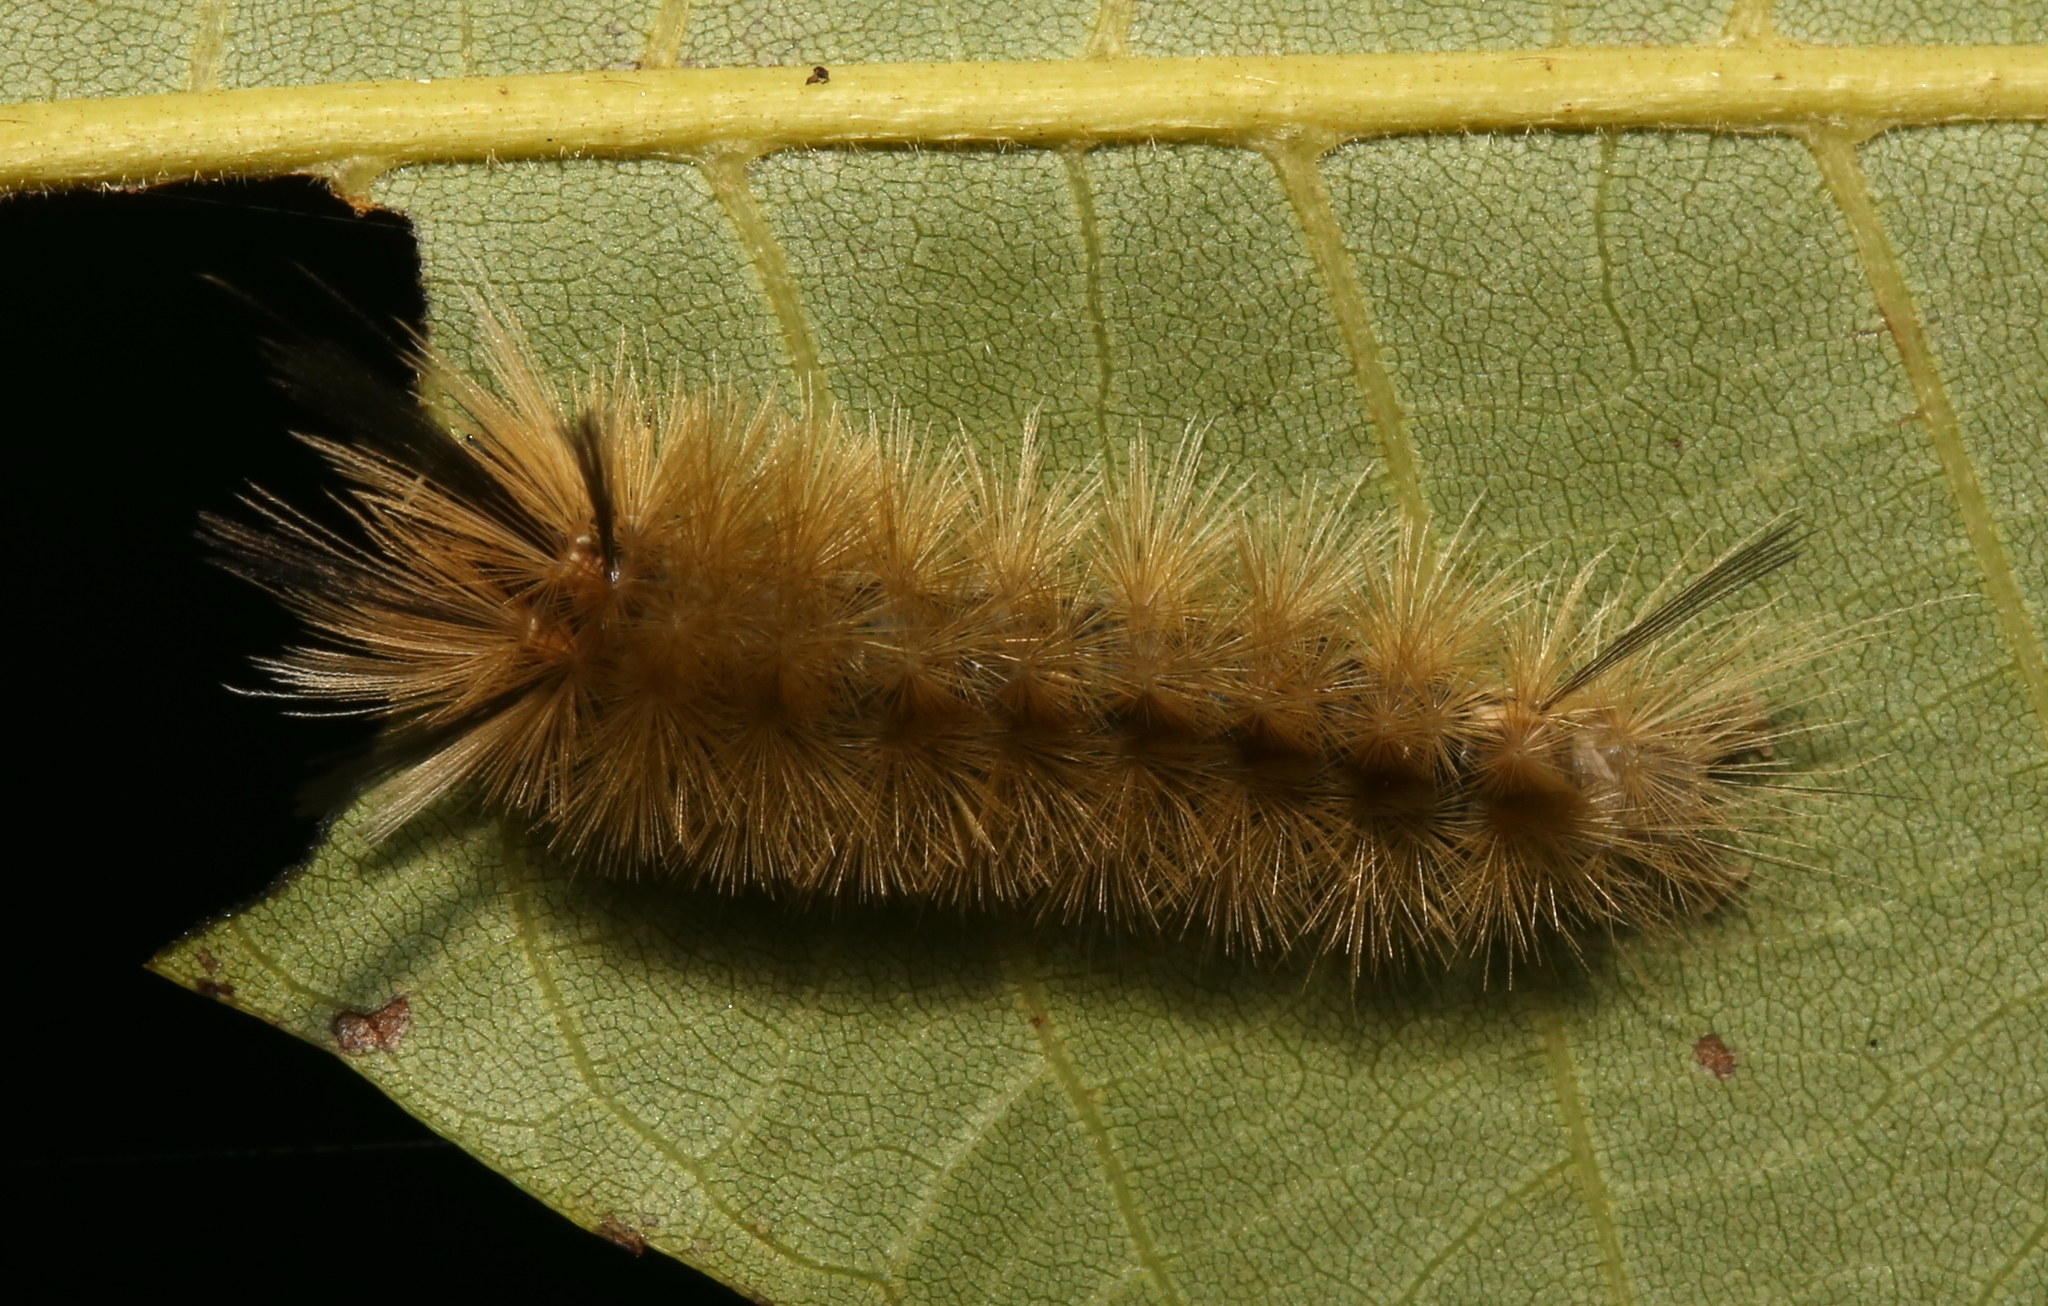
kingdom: Animalia
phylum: Arthropoda
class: Insecta
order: Lepidoptera
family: Erebidae
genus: Halysidota
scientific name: Halysidota tessellaris
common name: Banded tussock moth
